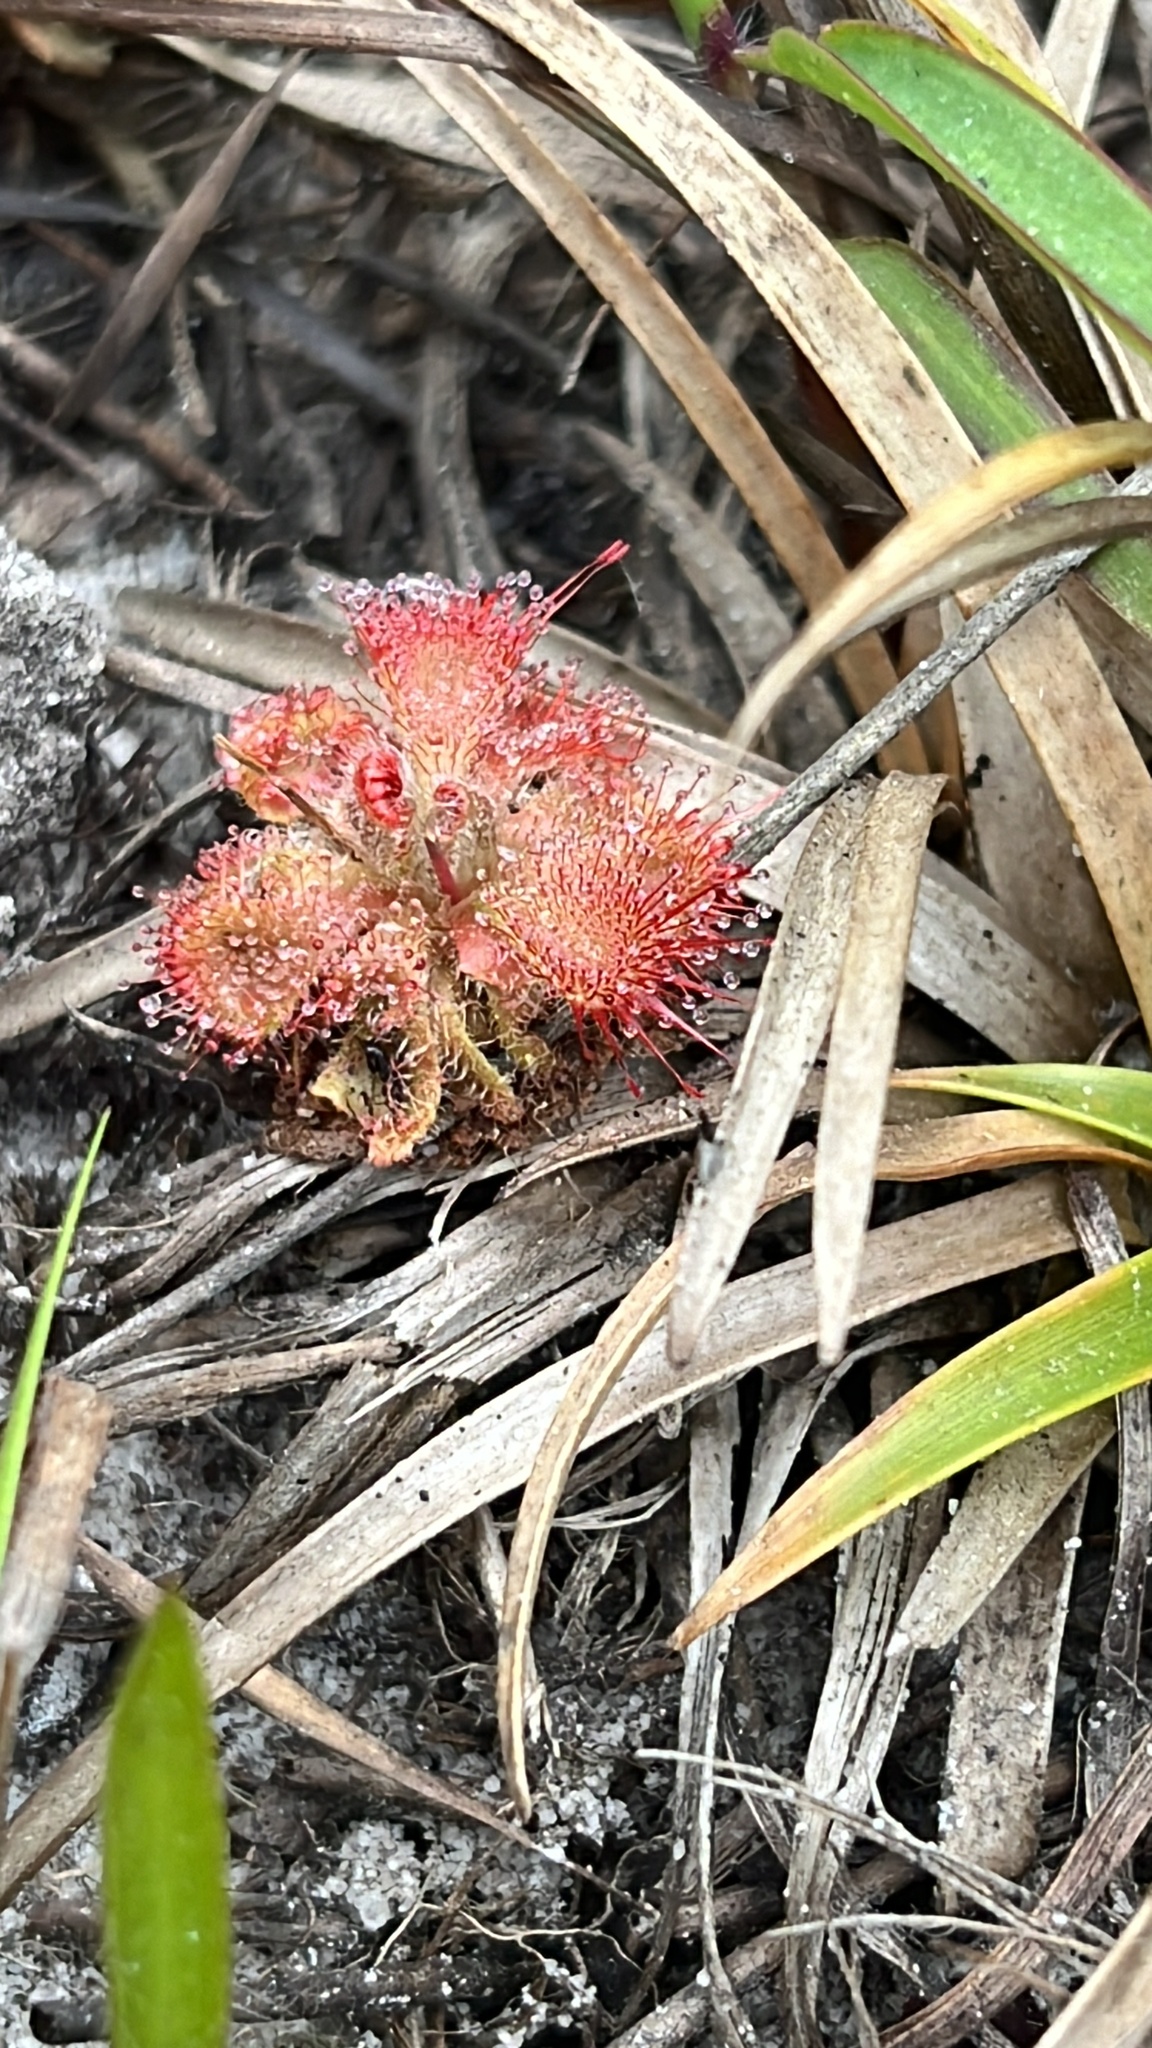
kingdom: Plantae
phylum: Tracheophyta
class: Magnoliopsida
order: Caryophyllales
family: Droseraceae
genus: Drosera
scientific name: Drosera spatulata
